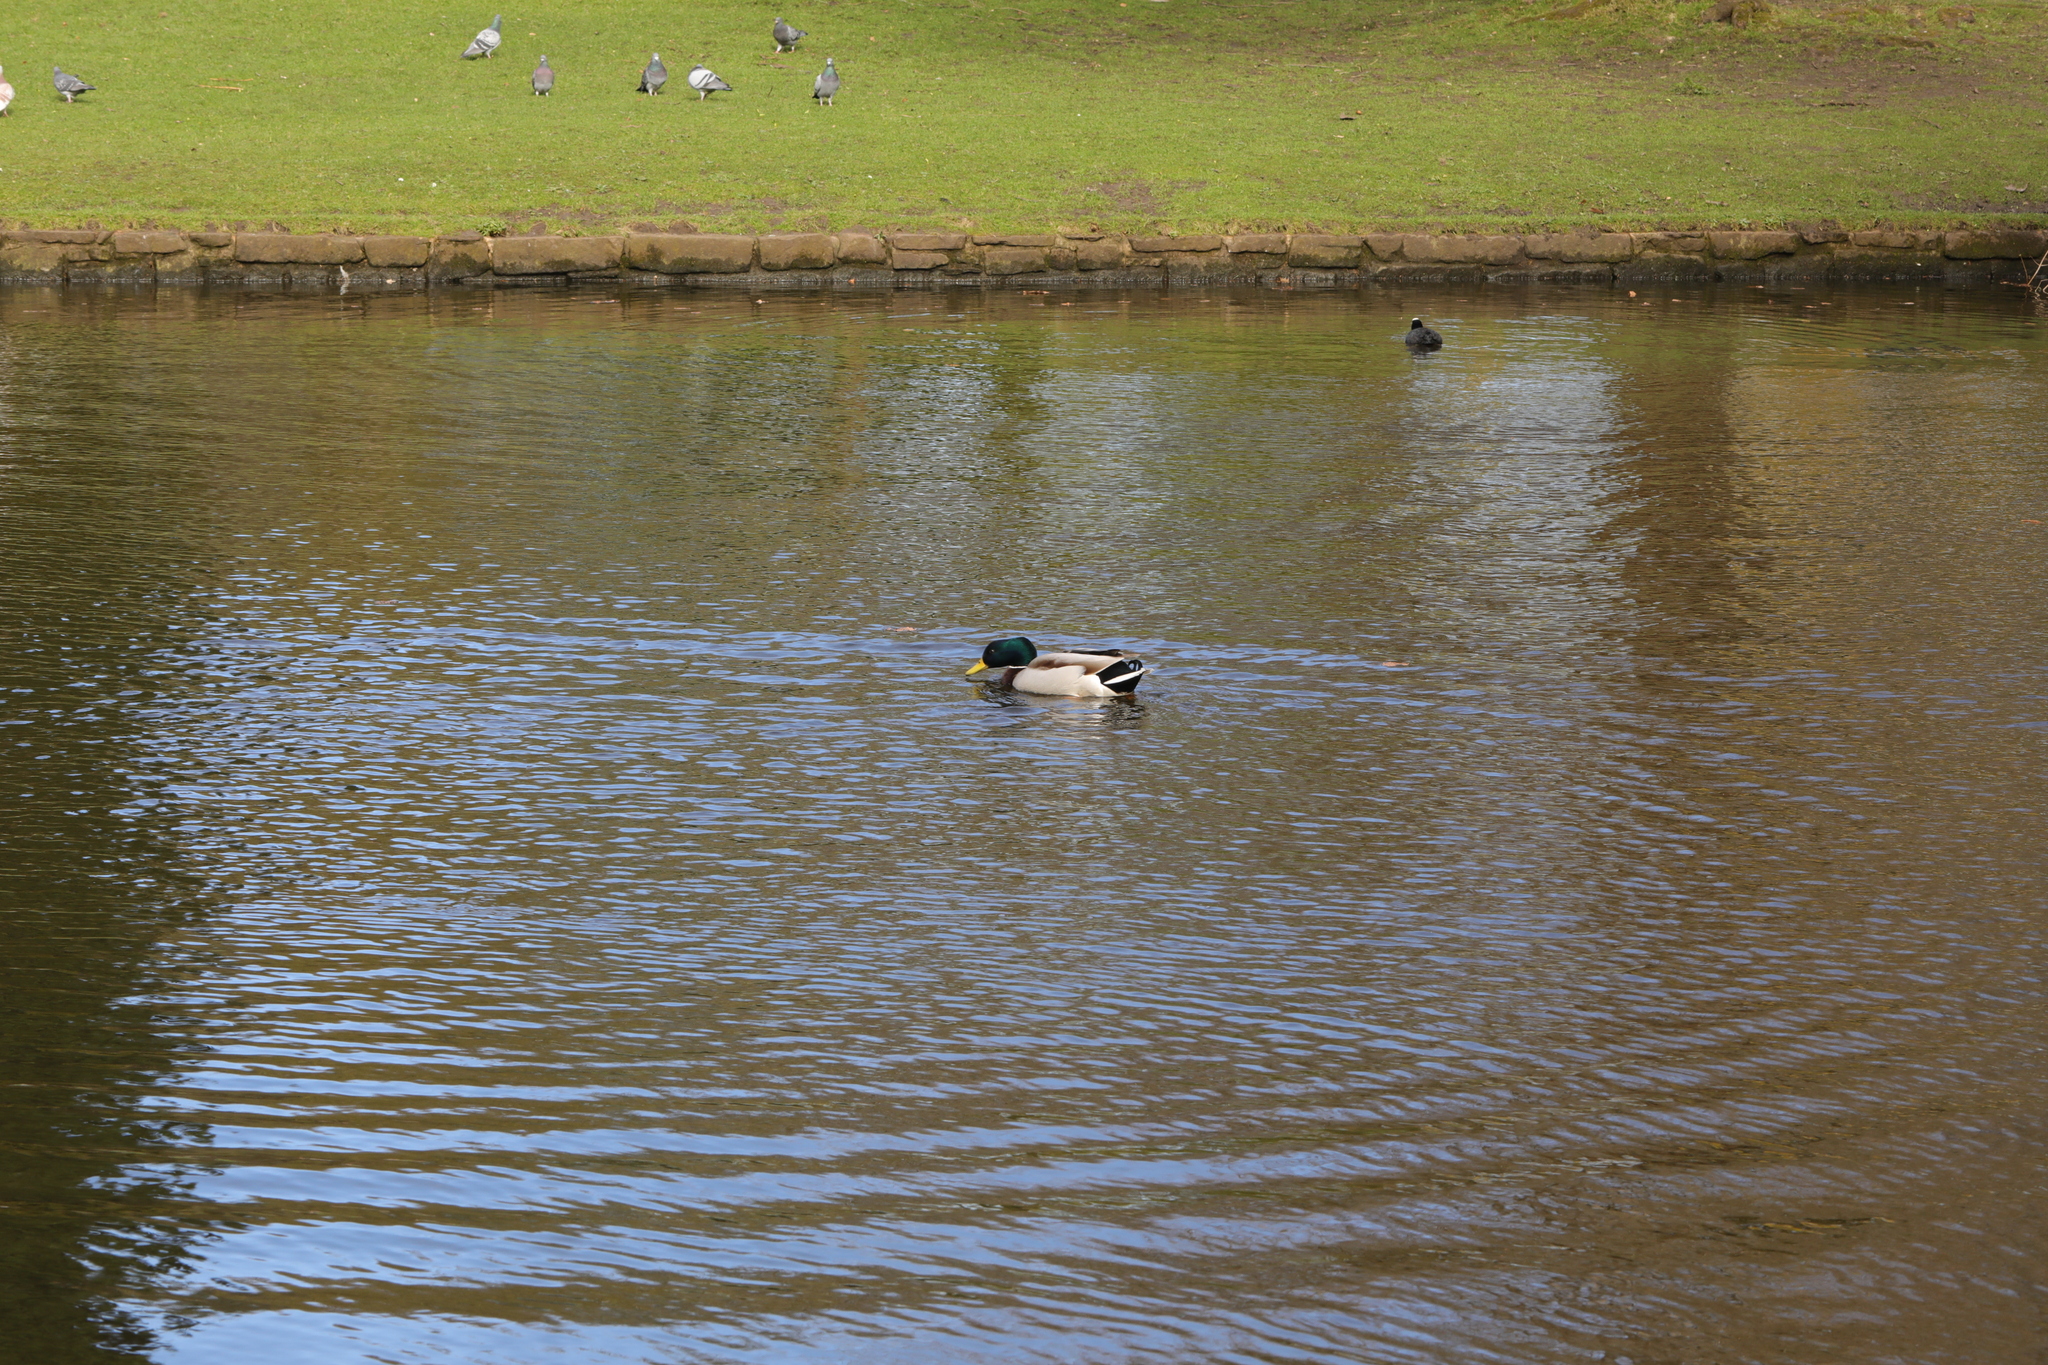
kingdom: Animalia
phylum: Chordata
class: Aves
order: Anseriformes
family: Anatidae
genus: Anas
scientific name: Anas platyrhynchos
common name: Mallard
